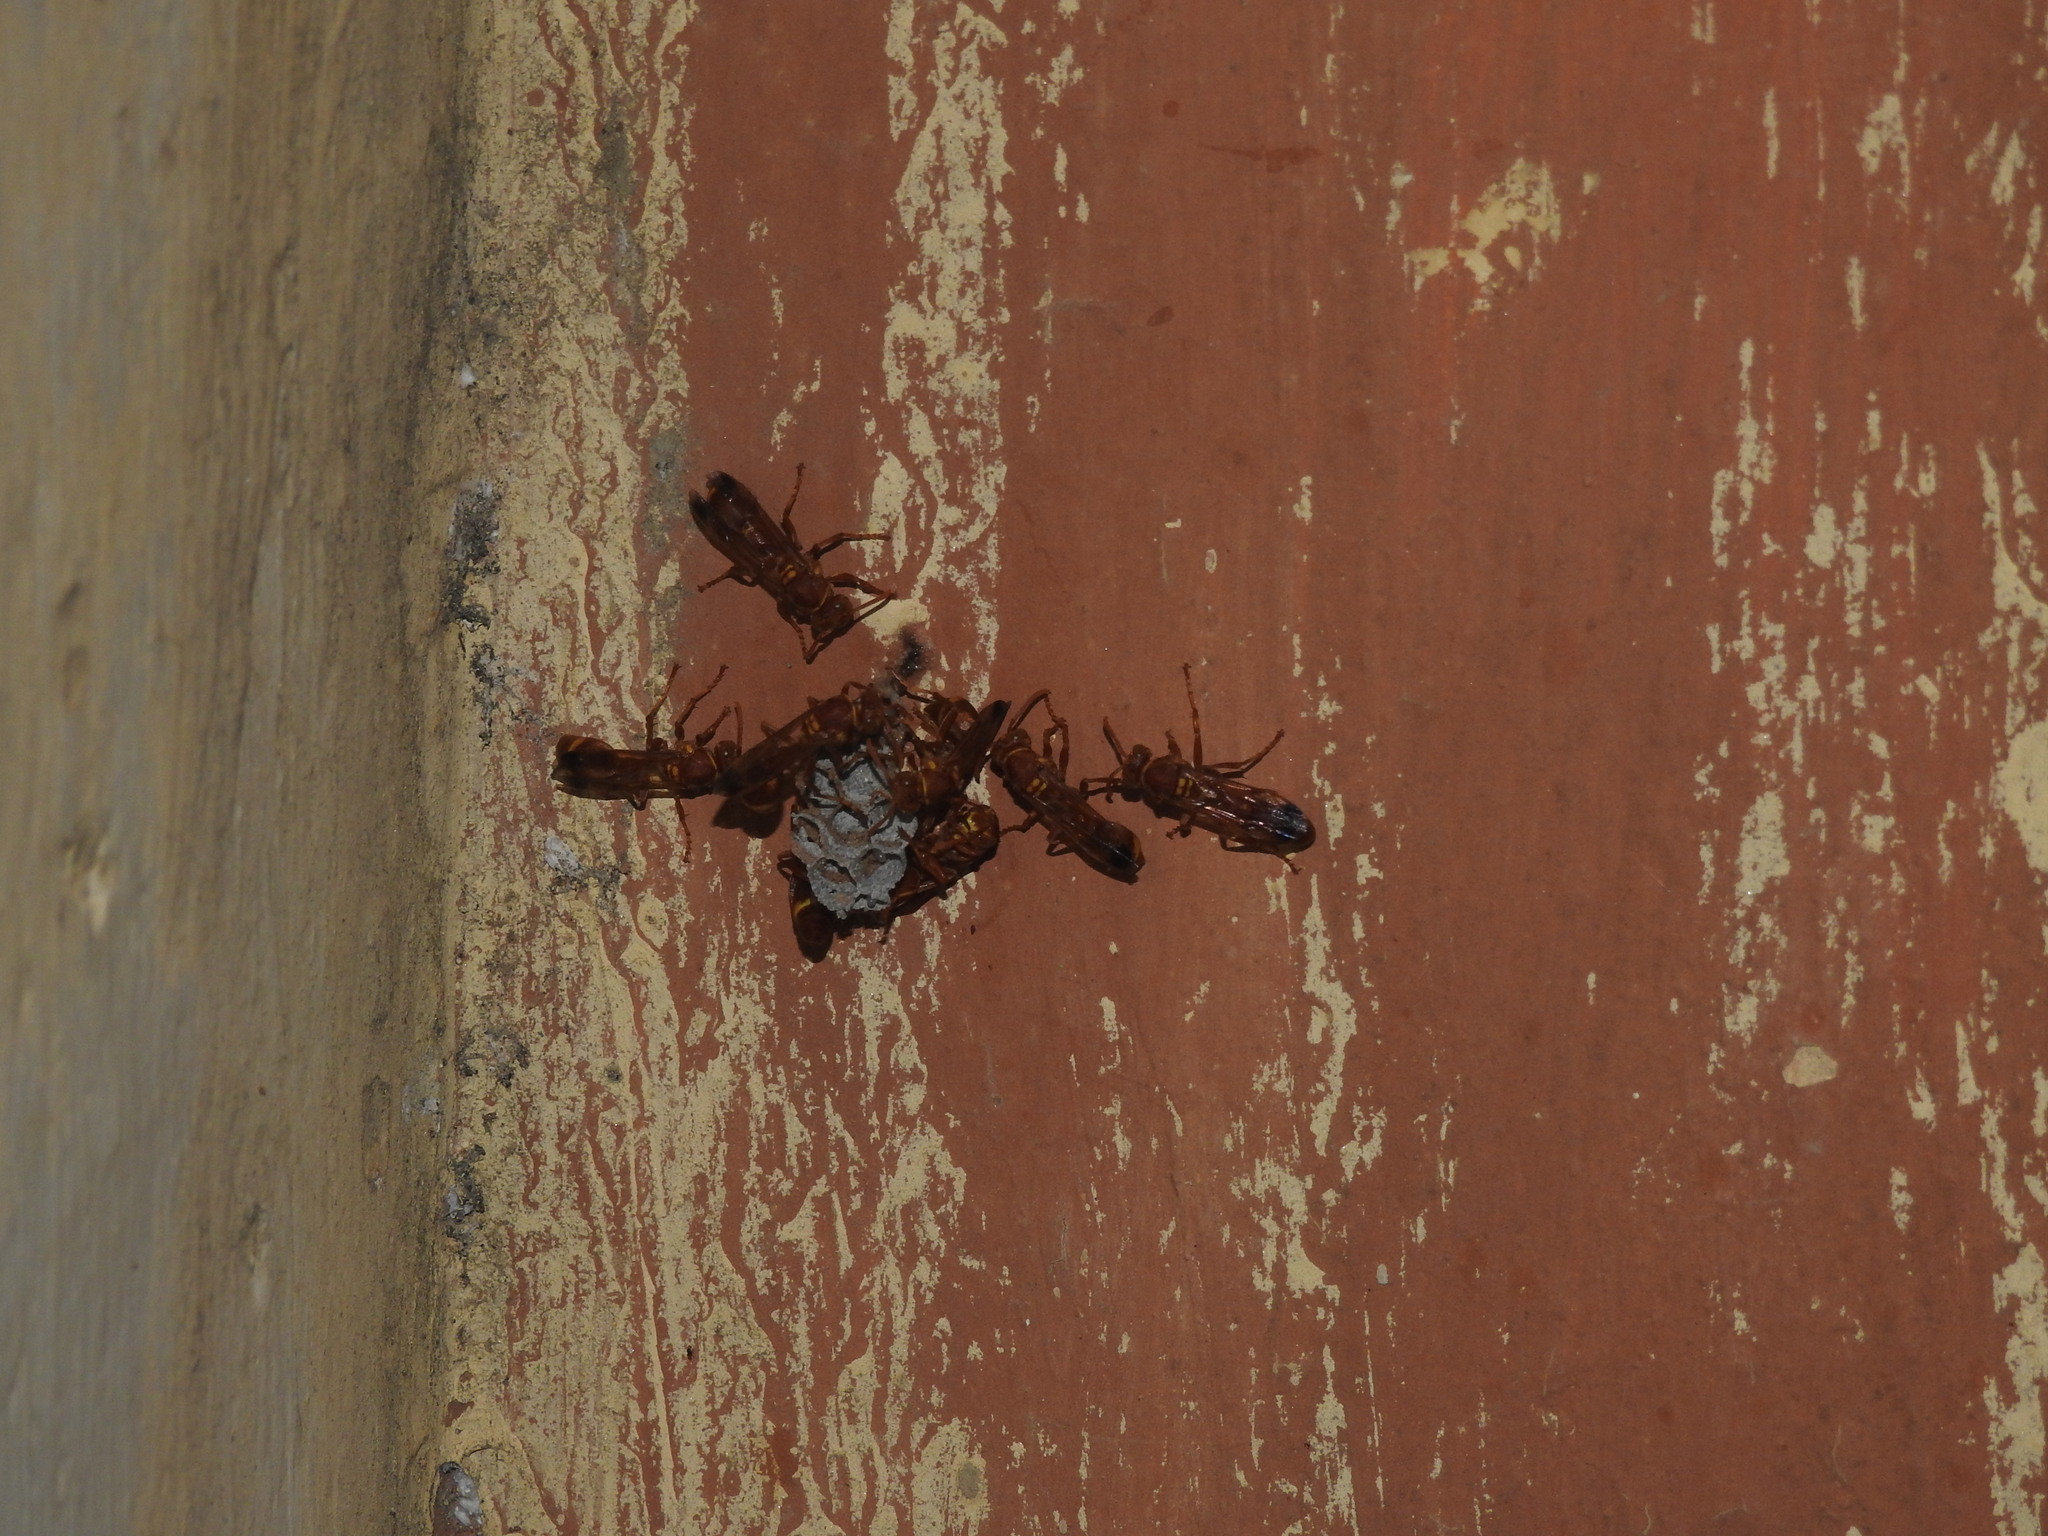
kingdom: Animalia
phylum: Arthropoda
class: Insecta
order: Hymenoptera
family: Vespidae
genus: Ropalidia
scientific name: Ropalidia marginata
